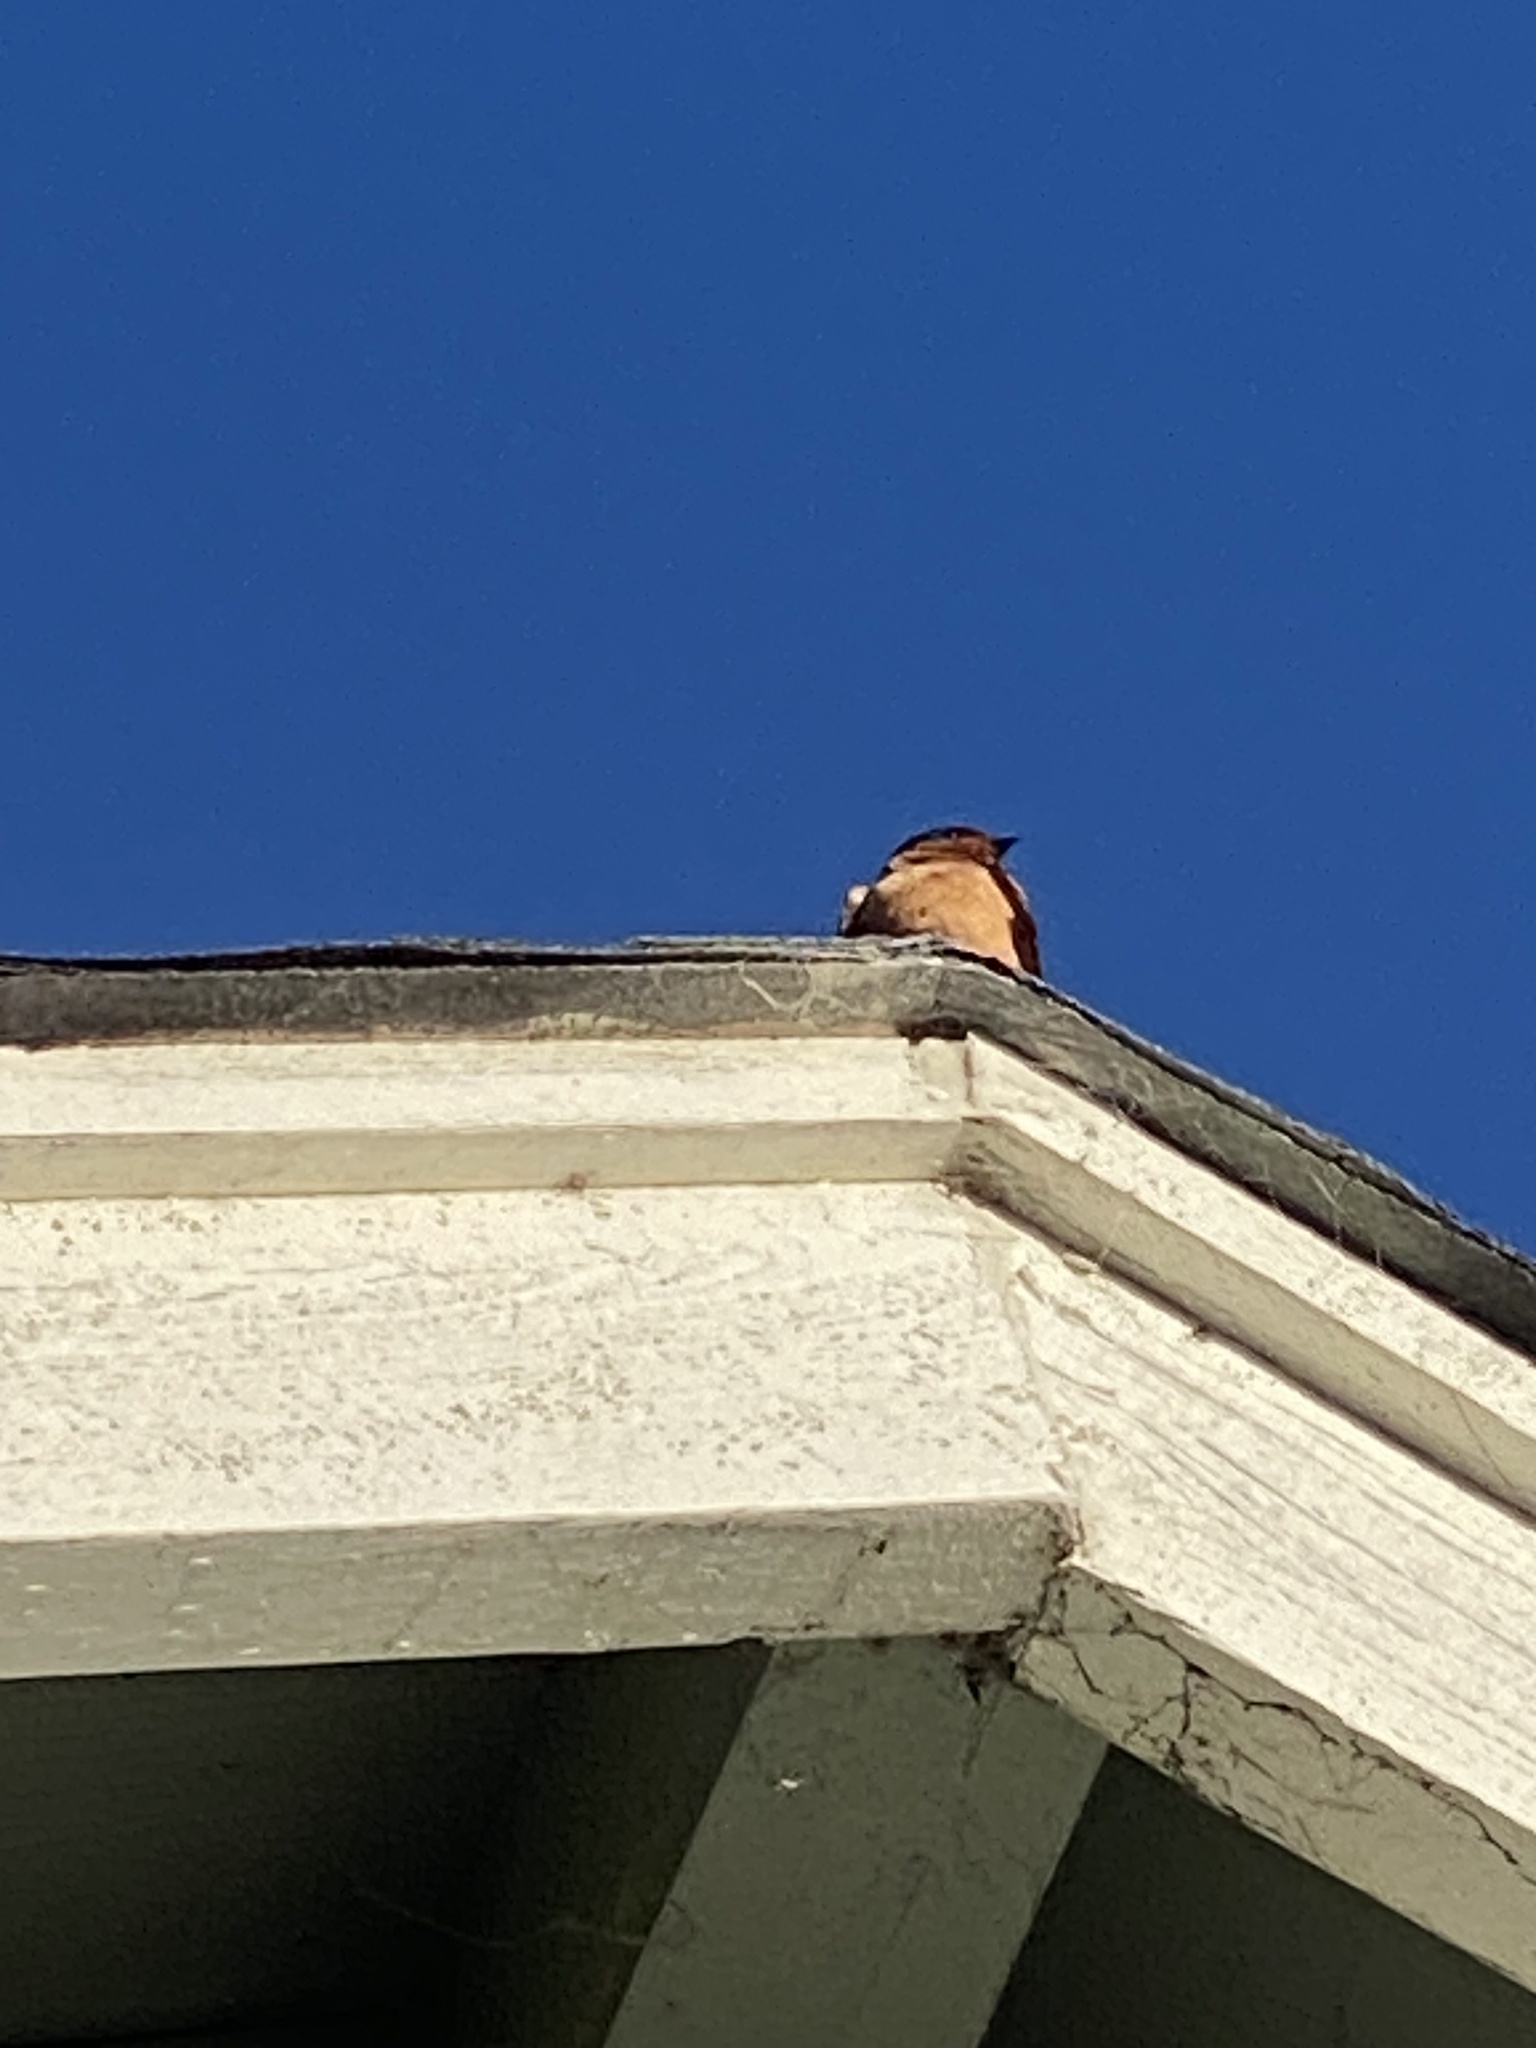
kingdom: Animalia
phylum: Chordata
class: Aves
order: Passeriformes
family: Hirundinidae
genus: Hirundo
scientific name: Hirundo rustica
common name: Barn swallow
